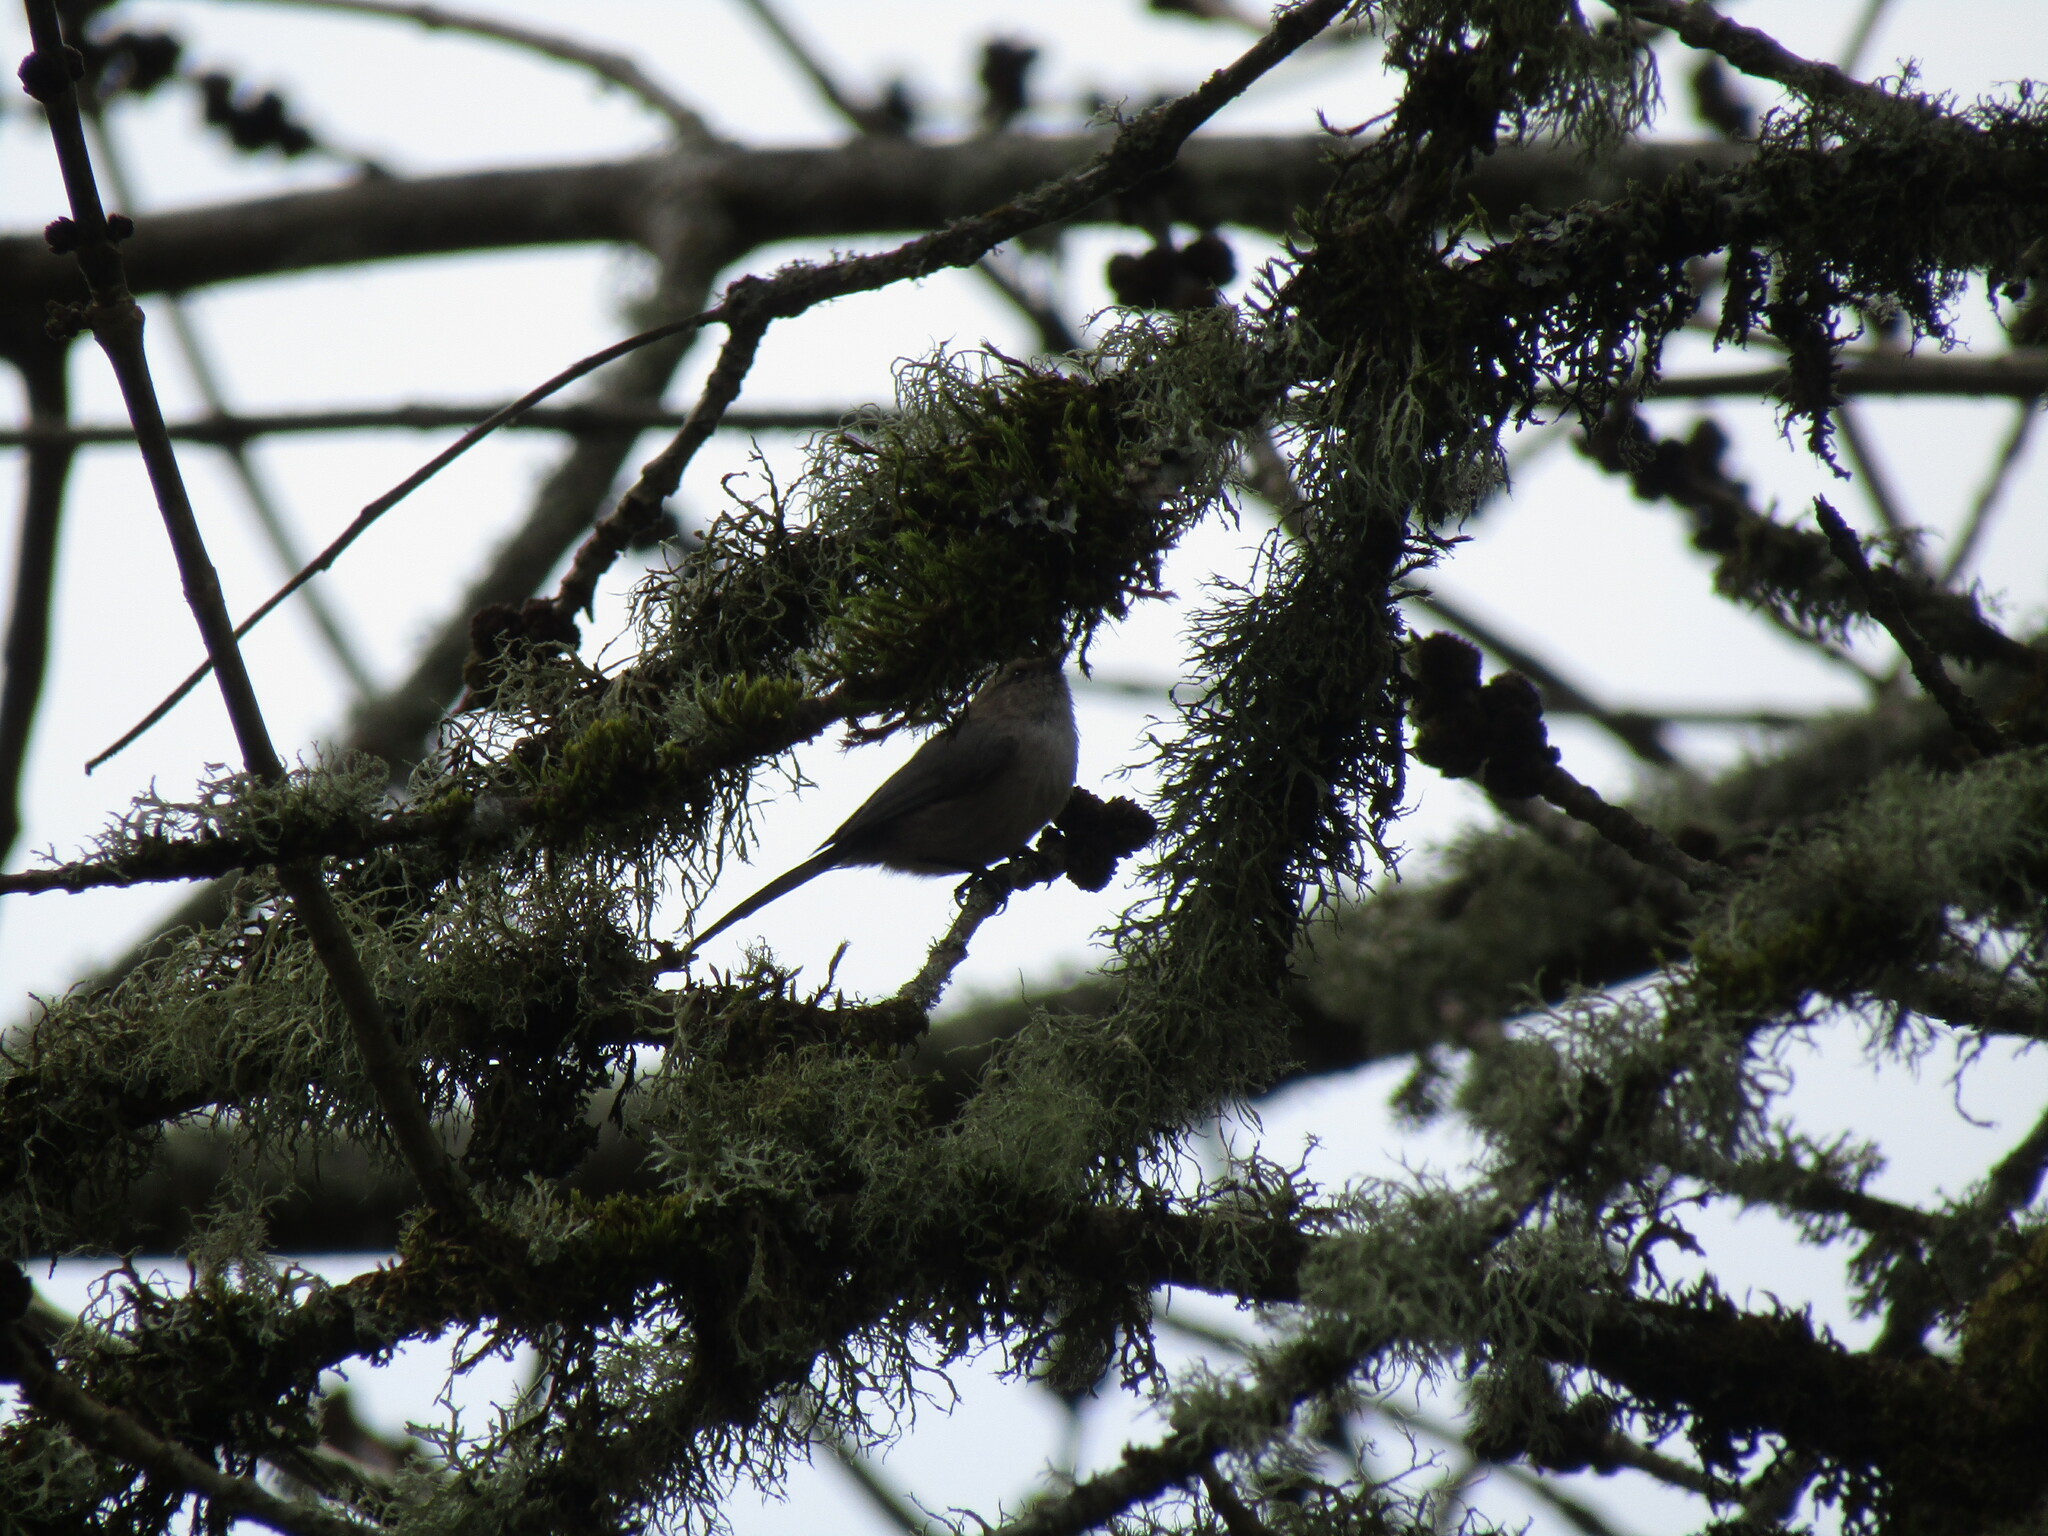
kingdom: Animalia
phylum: Chordata
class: Aves
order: Passeriformes
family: Troglodytidae
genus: Thryomanes
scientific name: Thryomanes bewickii
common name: Bewick's wren
